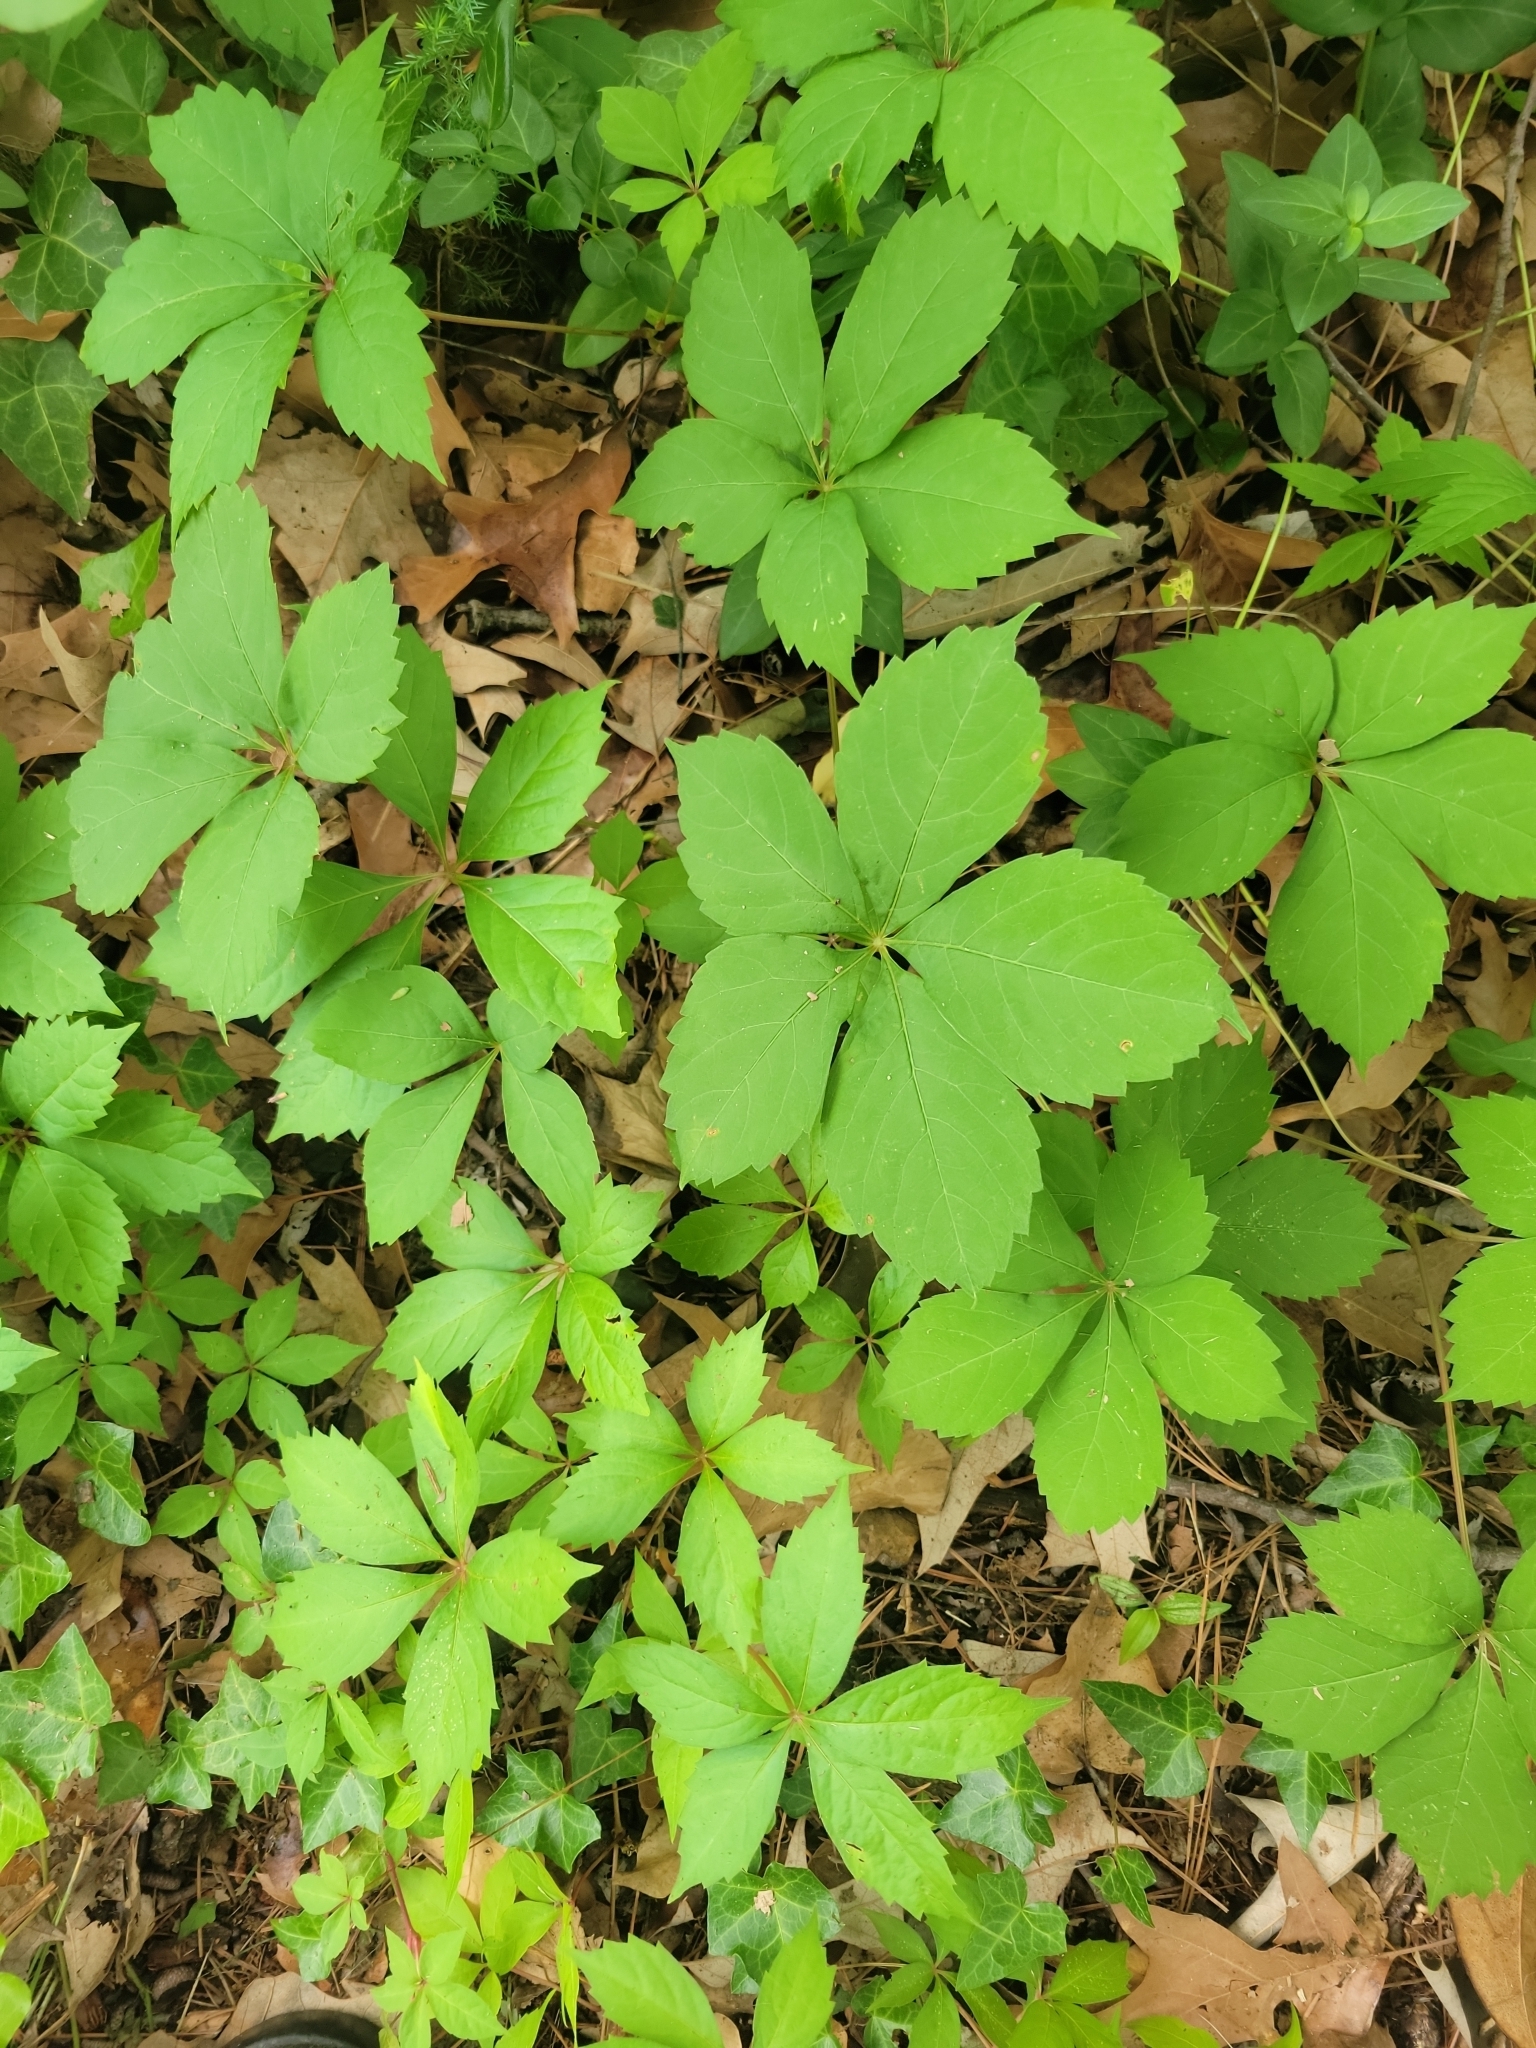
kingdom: Plantae
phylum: Tracheophyta
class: Magnoliopsida
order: Vitales
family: Vitaceae
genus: Parthenocissus
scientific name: Parthenocissus quinquefolia
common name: Virginia-creeper
